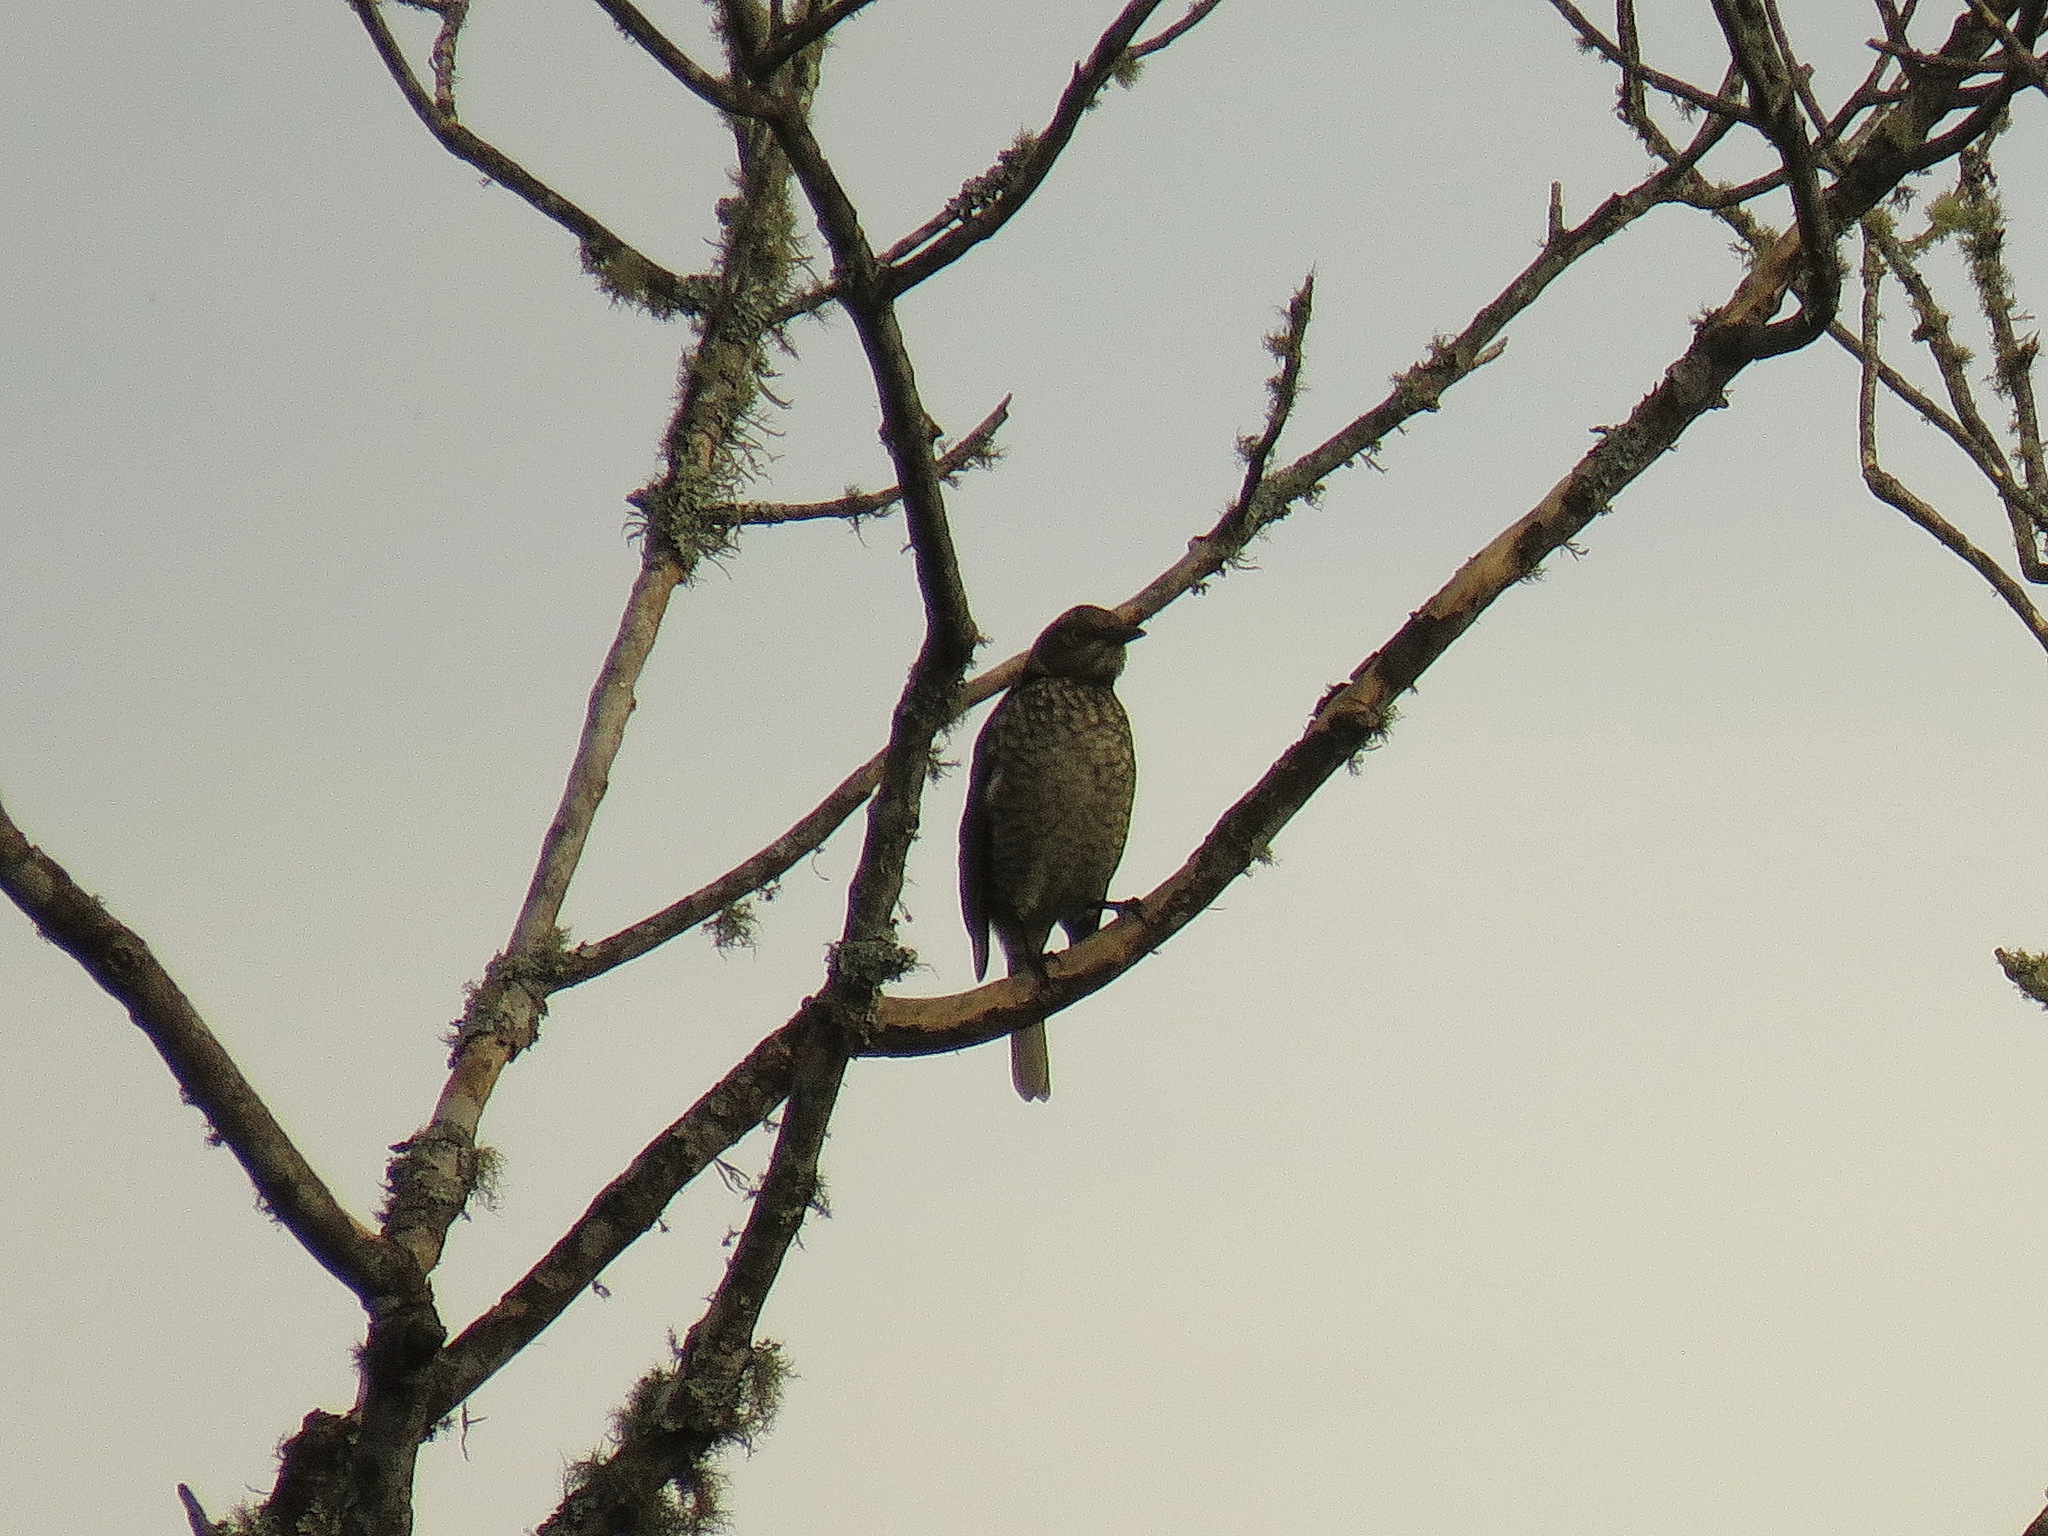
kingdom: Animalia
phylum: Chordata
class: Aves
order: Passeriformes
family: Ptilonorhynchidae
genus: Sericulus
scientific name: Sericulus chrysocephalus
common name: Regent bowerbird
